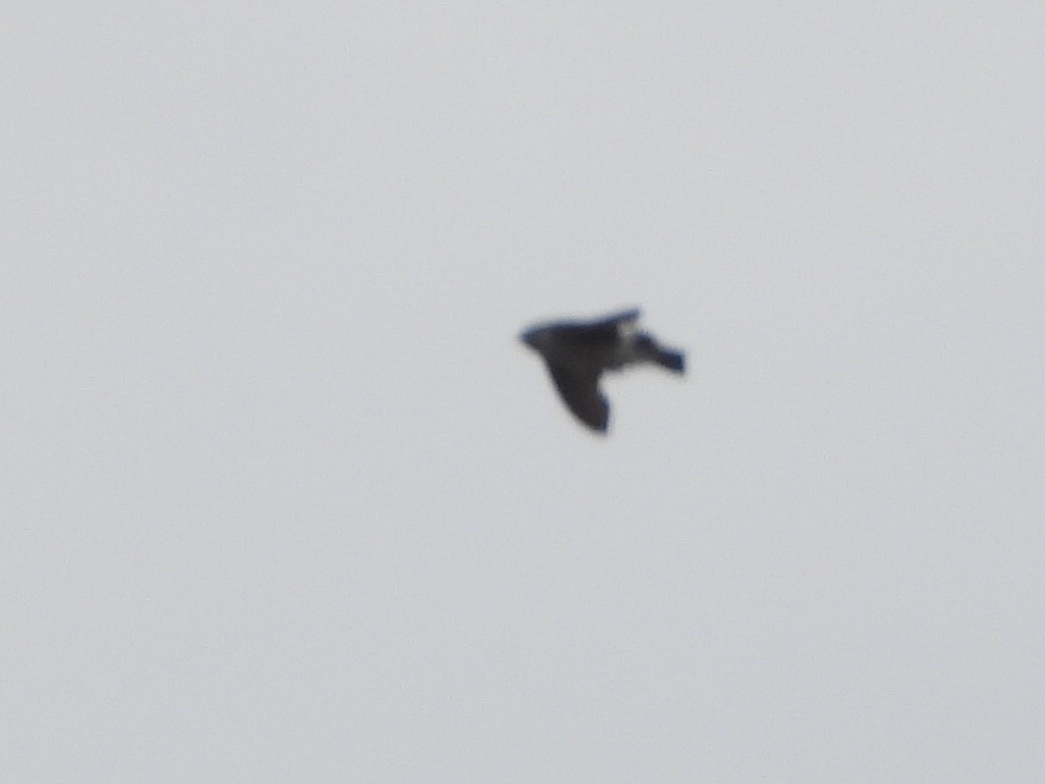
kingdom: Animalia
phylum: Chordata
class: Aves
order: Passeriformes
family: Hirundinidae
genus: Tachycineta
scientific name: Tachycineta thalassina
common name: Violet-green swallow
